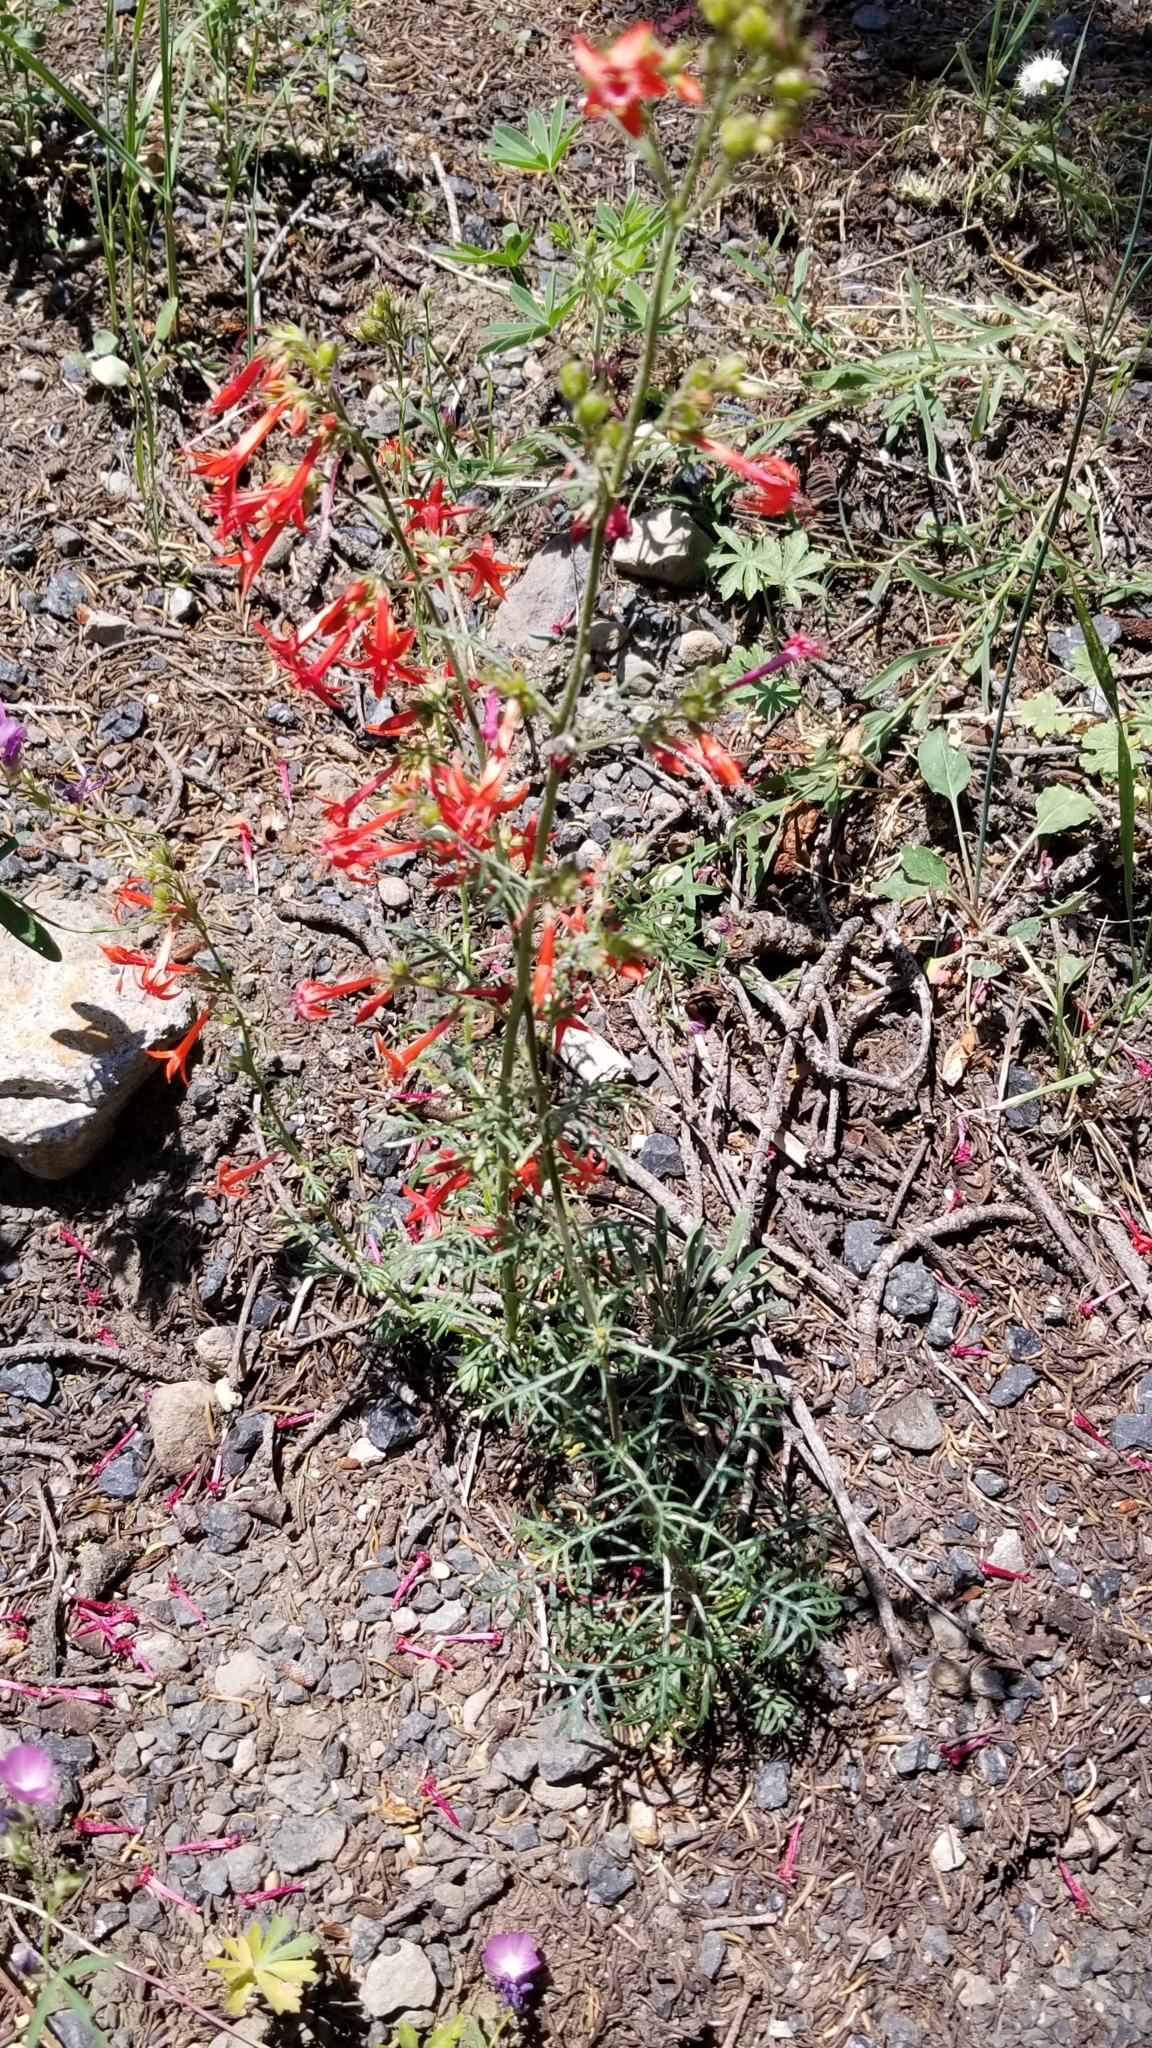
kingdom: Plantae
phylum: Tracheophyta
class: Magnoliopsida
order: Ericales
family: Polemoniaceae
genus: Ipomopsis
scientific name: Ipomopsis aggregata
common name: Scarlet gilia
